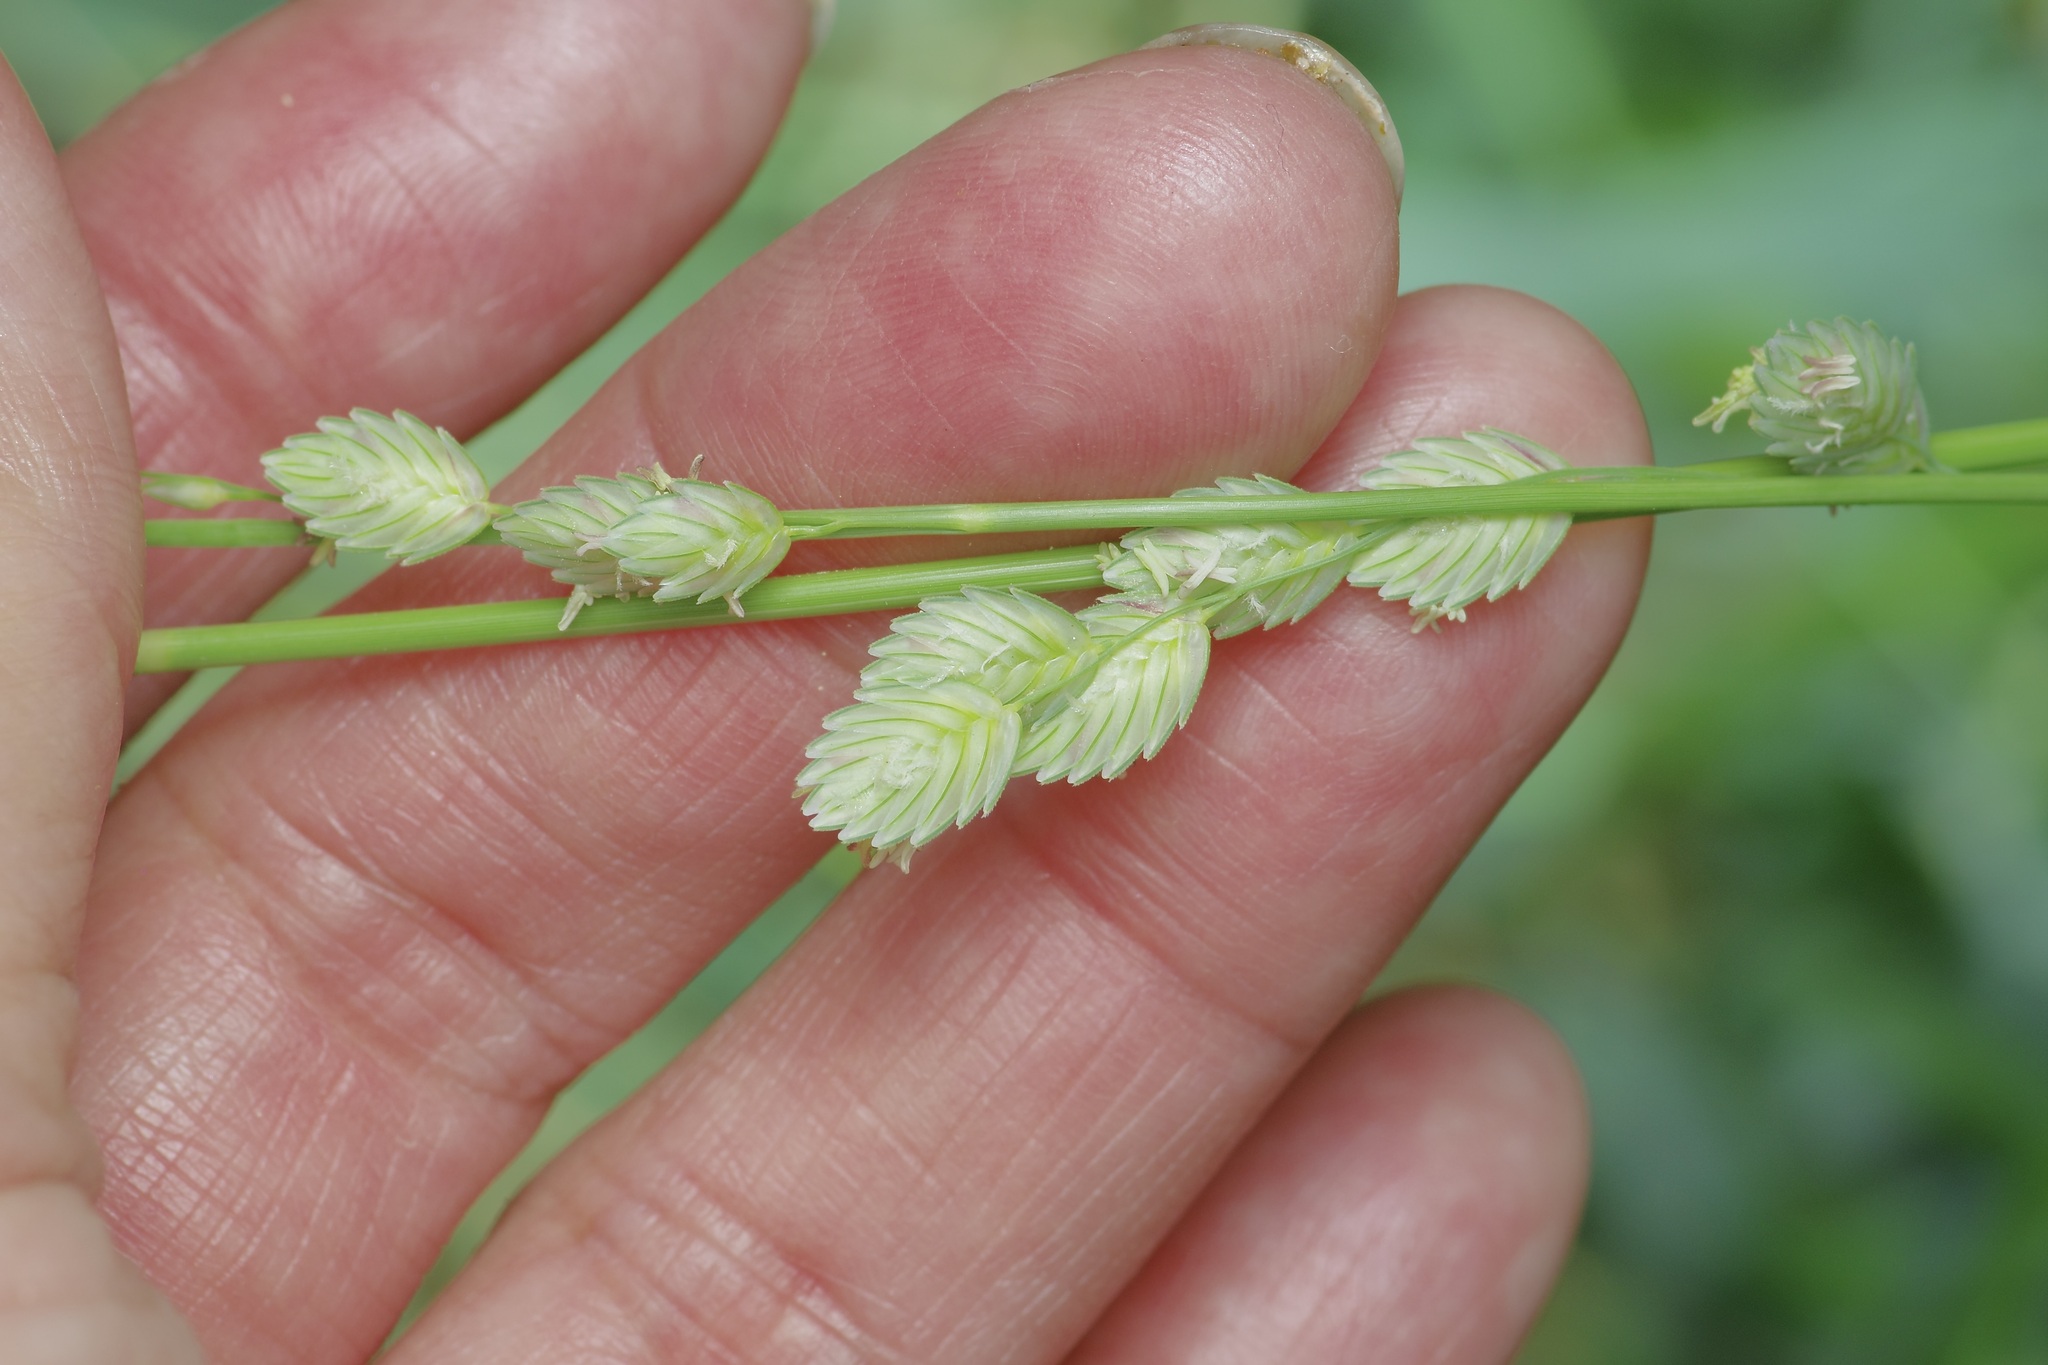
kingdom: Plantae
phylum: Tracheophyta
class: Liliopsida
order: Poales
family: Poaceae
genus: Eragrostis
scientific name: Eragrostis superba
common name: Wilman lovegrass
